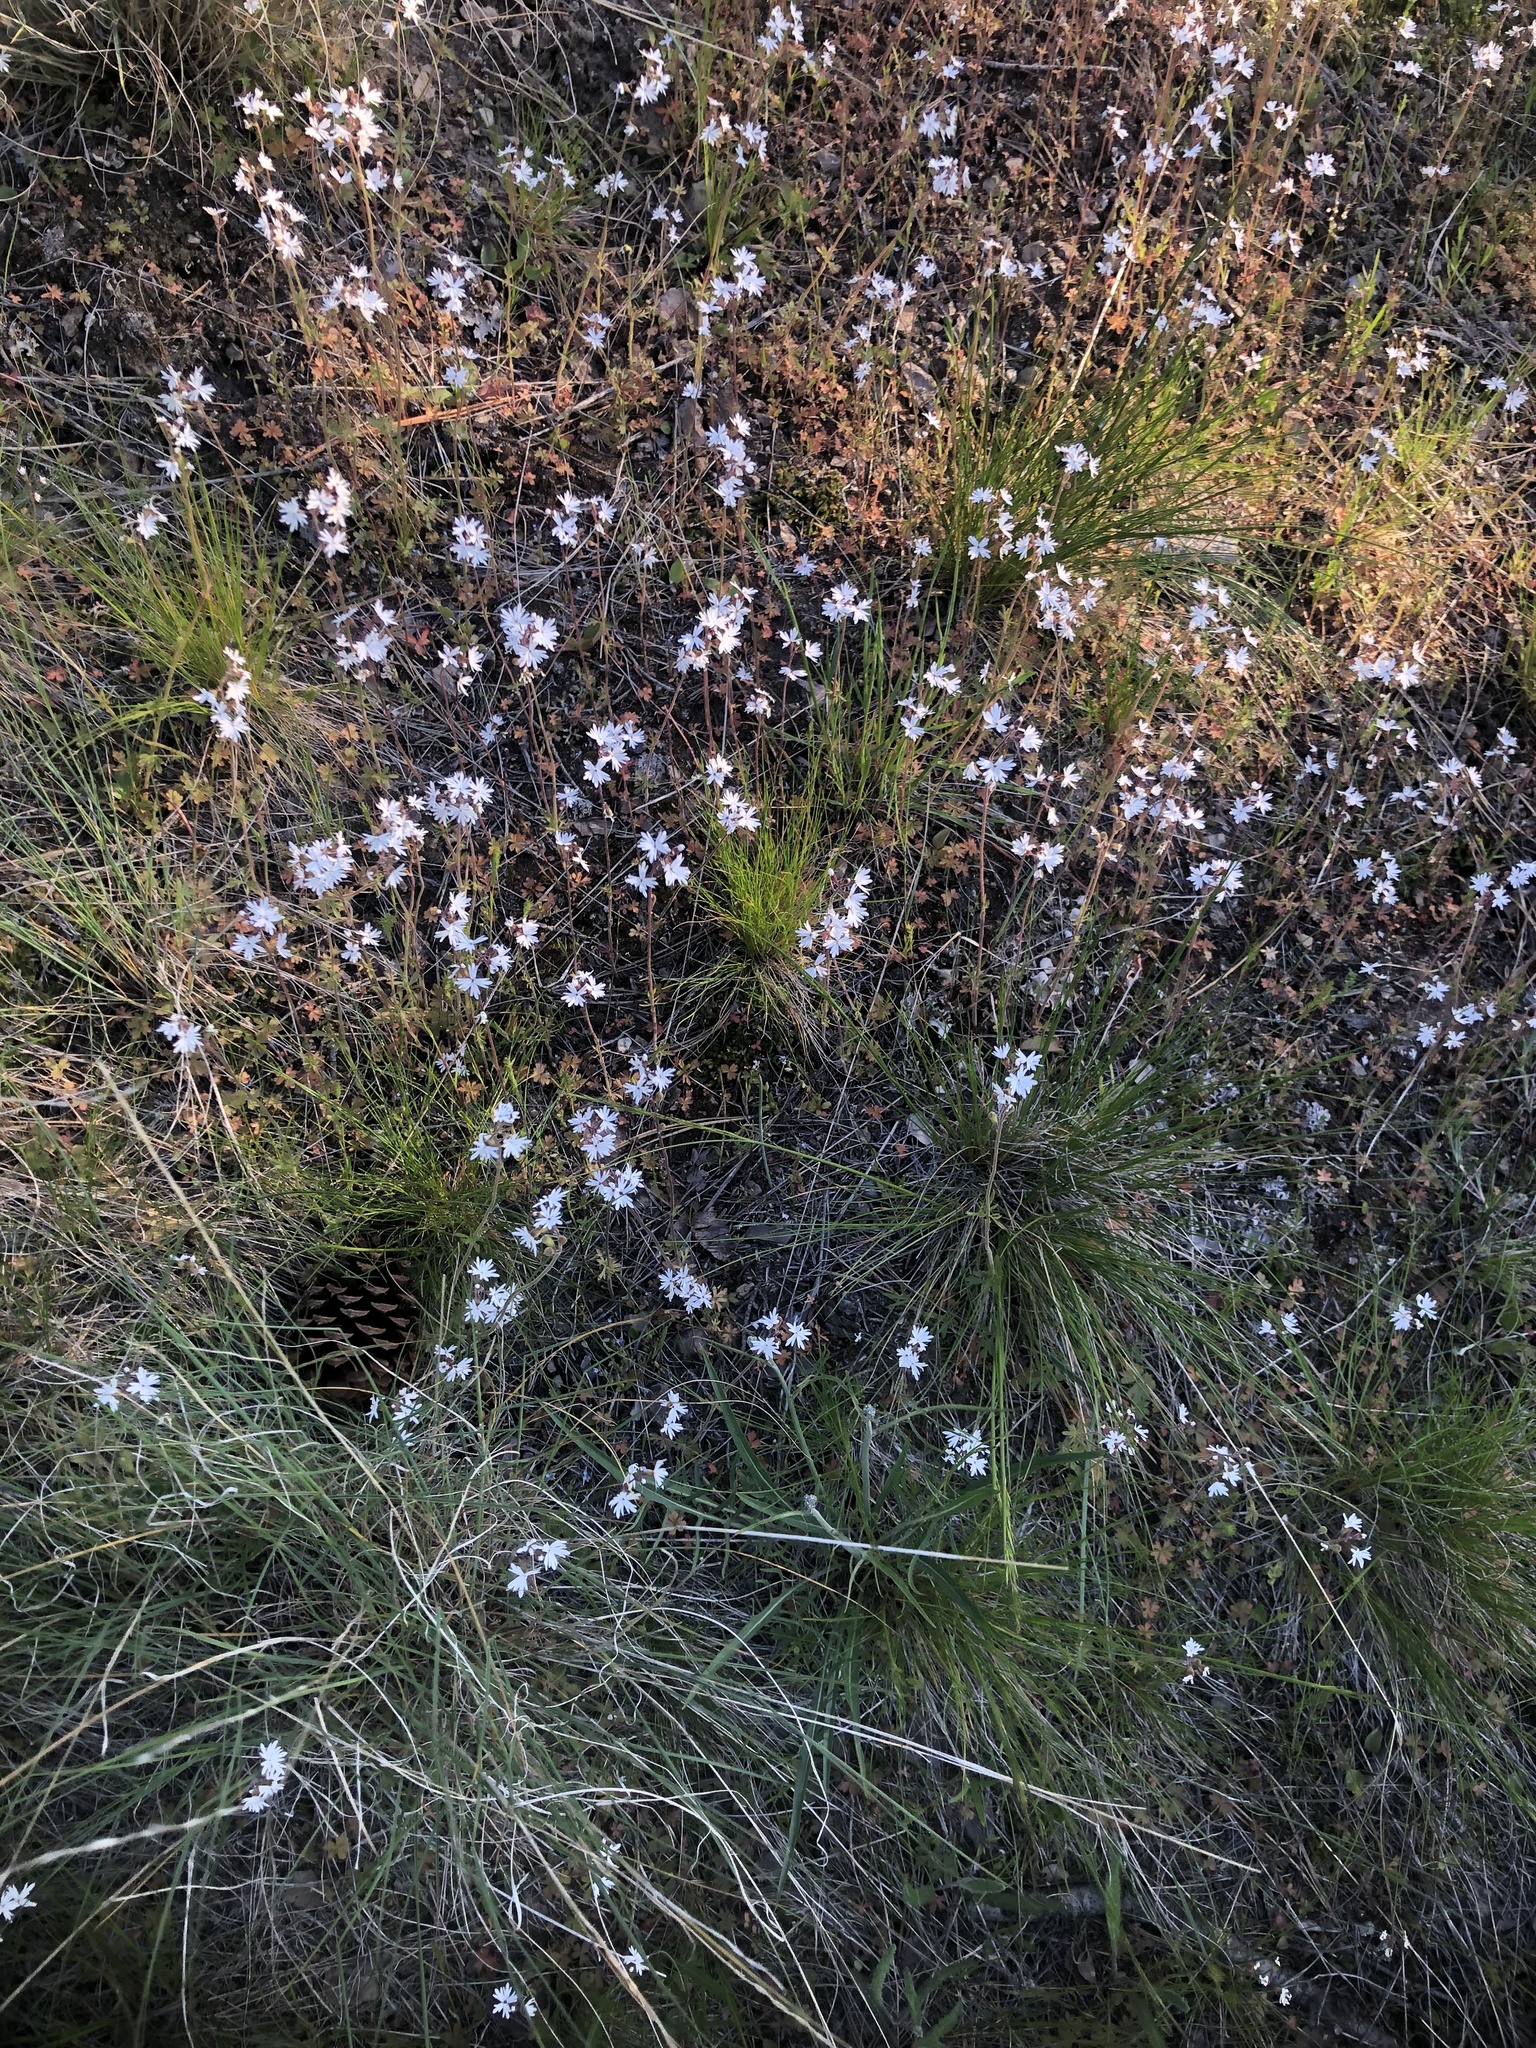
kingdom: Plantae
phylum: Tracheophyta
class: Magnoliopsida
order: Saxifragales
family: Saxifragaceae
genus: Lithophragma
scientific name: Lithophragma parviflorum
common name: Small-flowered fringe-cup
